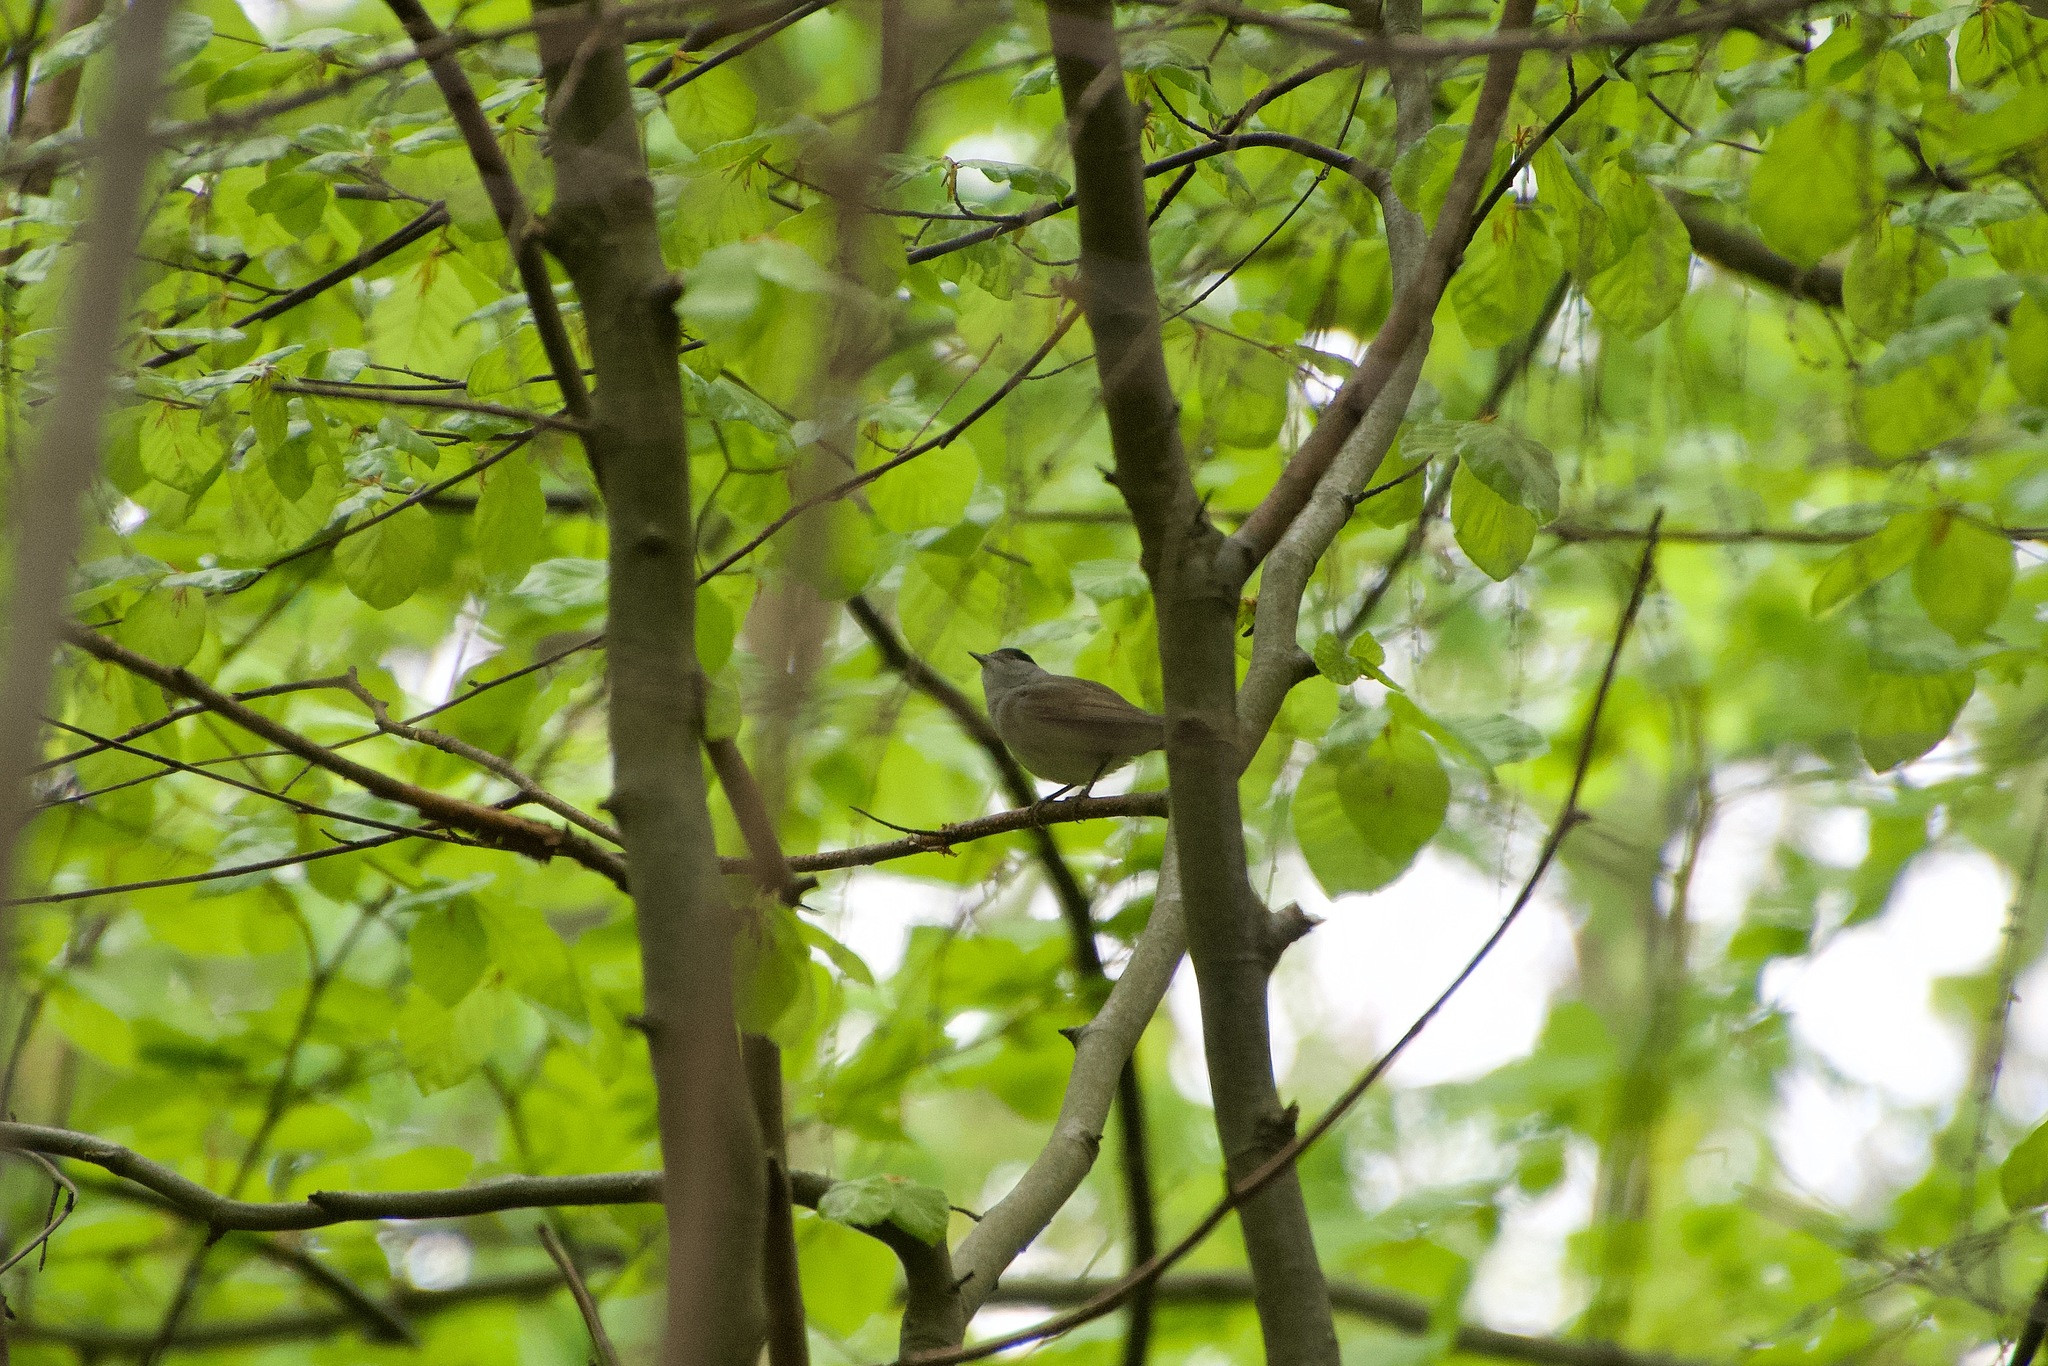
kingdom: Animalia
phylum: Chordata
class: Aves
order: Passeriformes
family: Sylviidae
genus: Sylvia
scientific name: Sylvia atricapilla
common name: Eurasian blackcap
